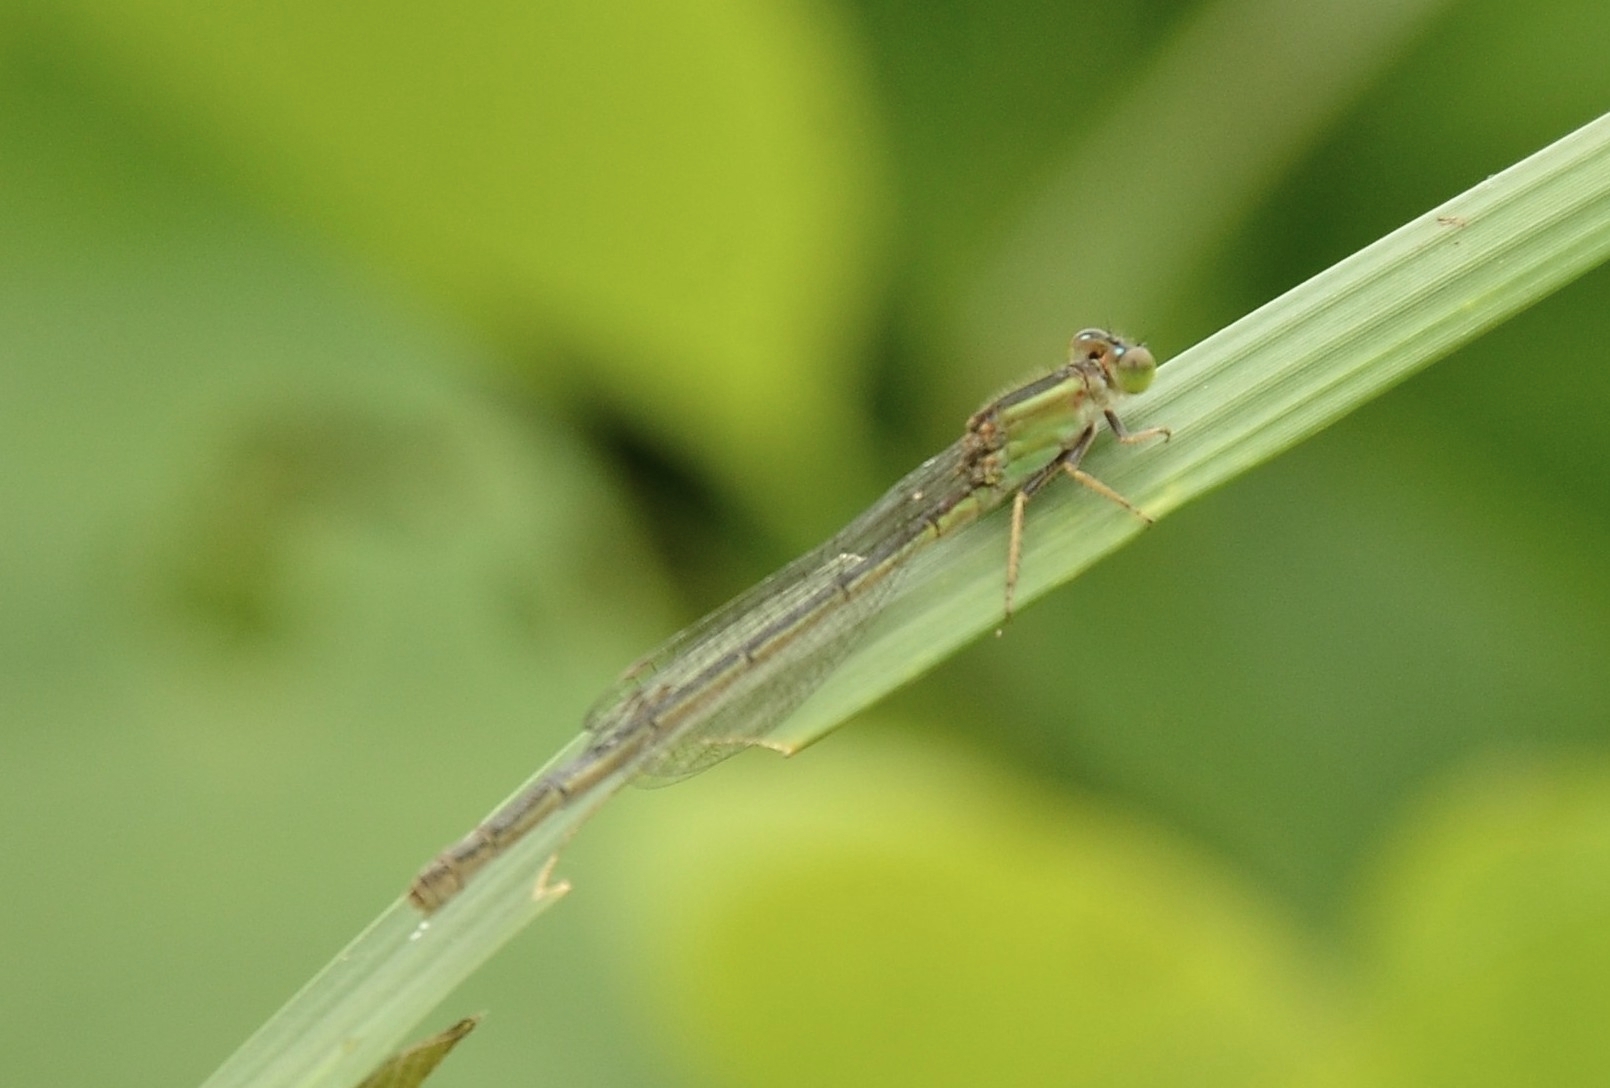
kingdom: Animalia
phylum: Arthropoda
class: Insecta
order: Odonata
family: Coenagrionidae
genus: Ischnura
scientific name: Ischnura senegalensis
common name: Tropical bluetail
